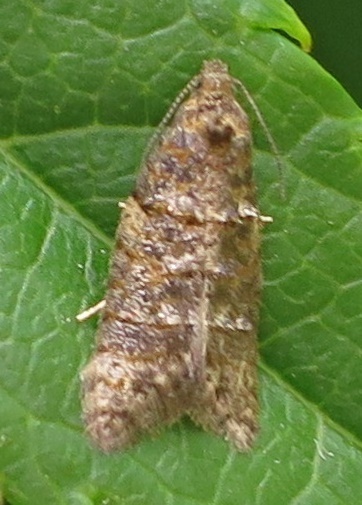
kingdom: Animalia
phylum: Arthropoda
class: Insecta
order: Lepidoptera
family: Tortricidae
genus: Lopharcha
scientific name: Lopharcha insolita
